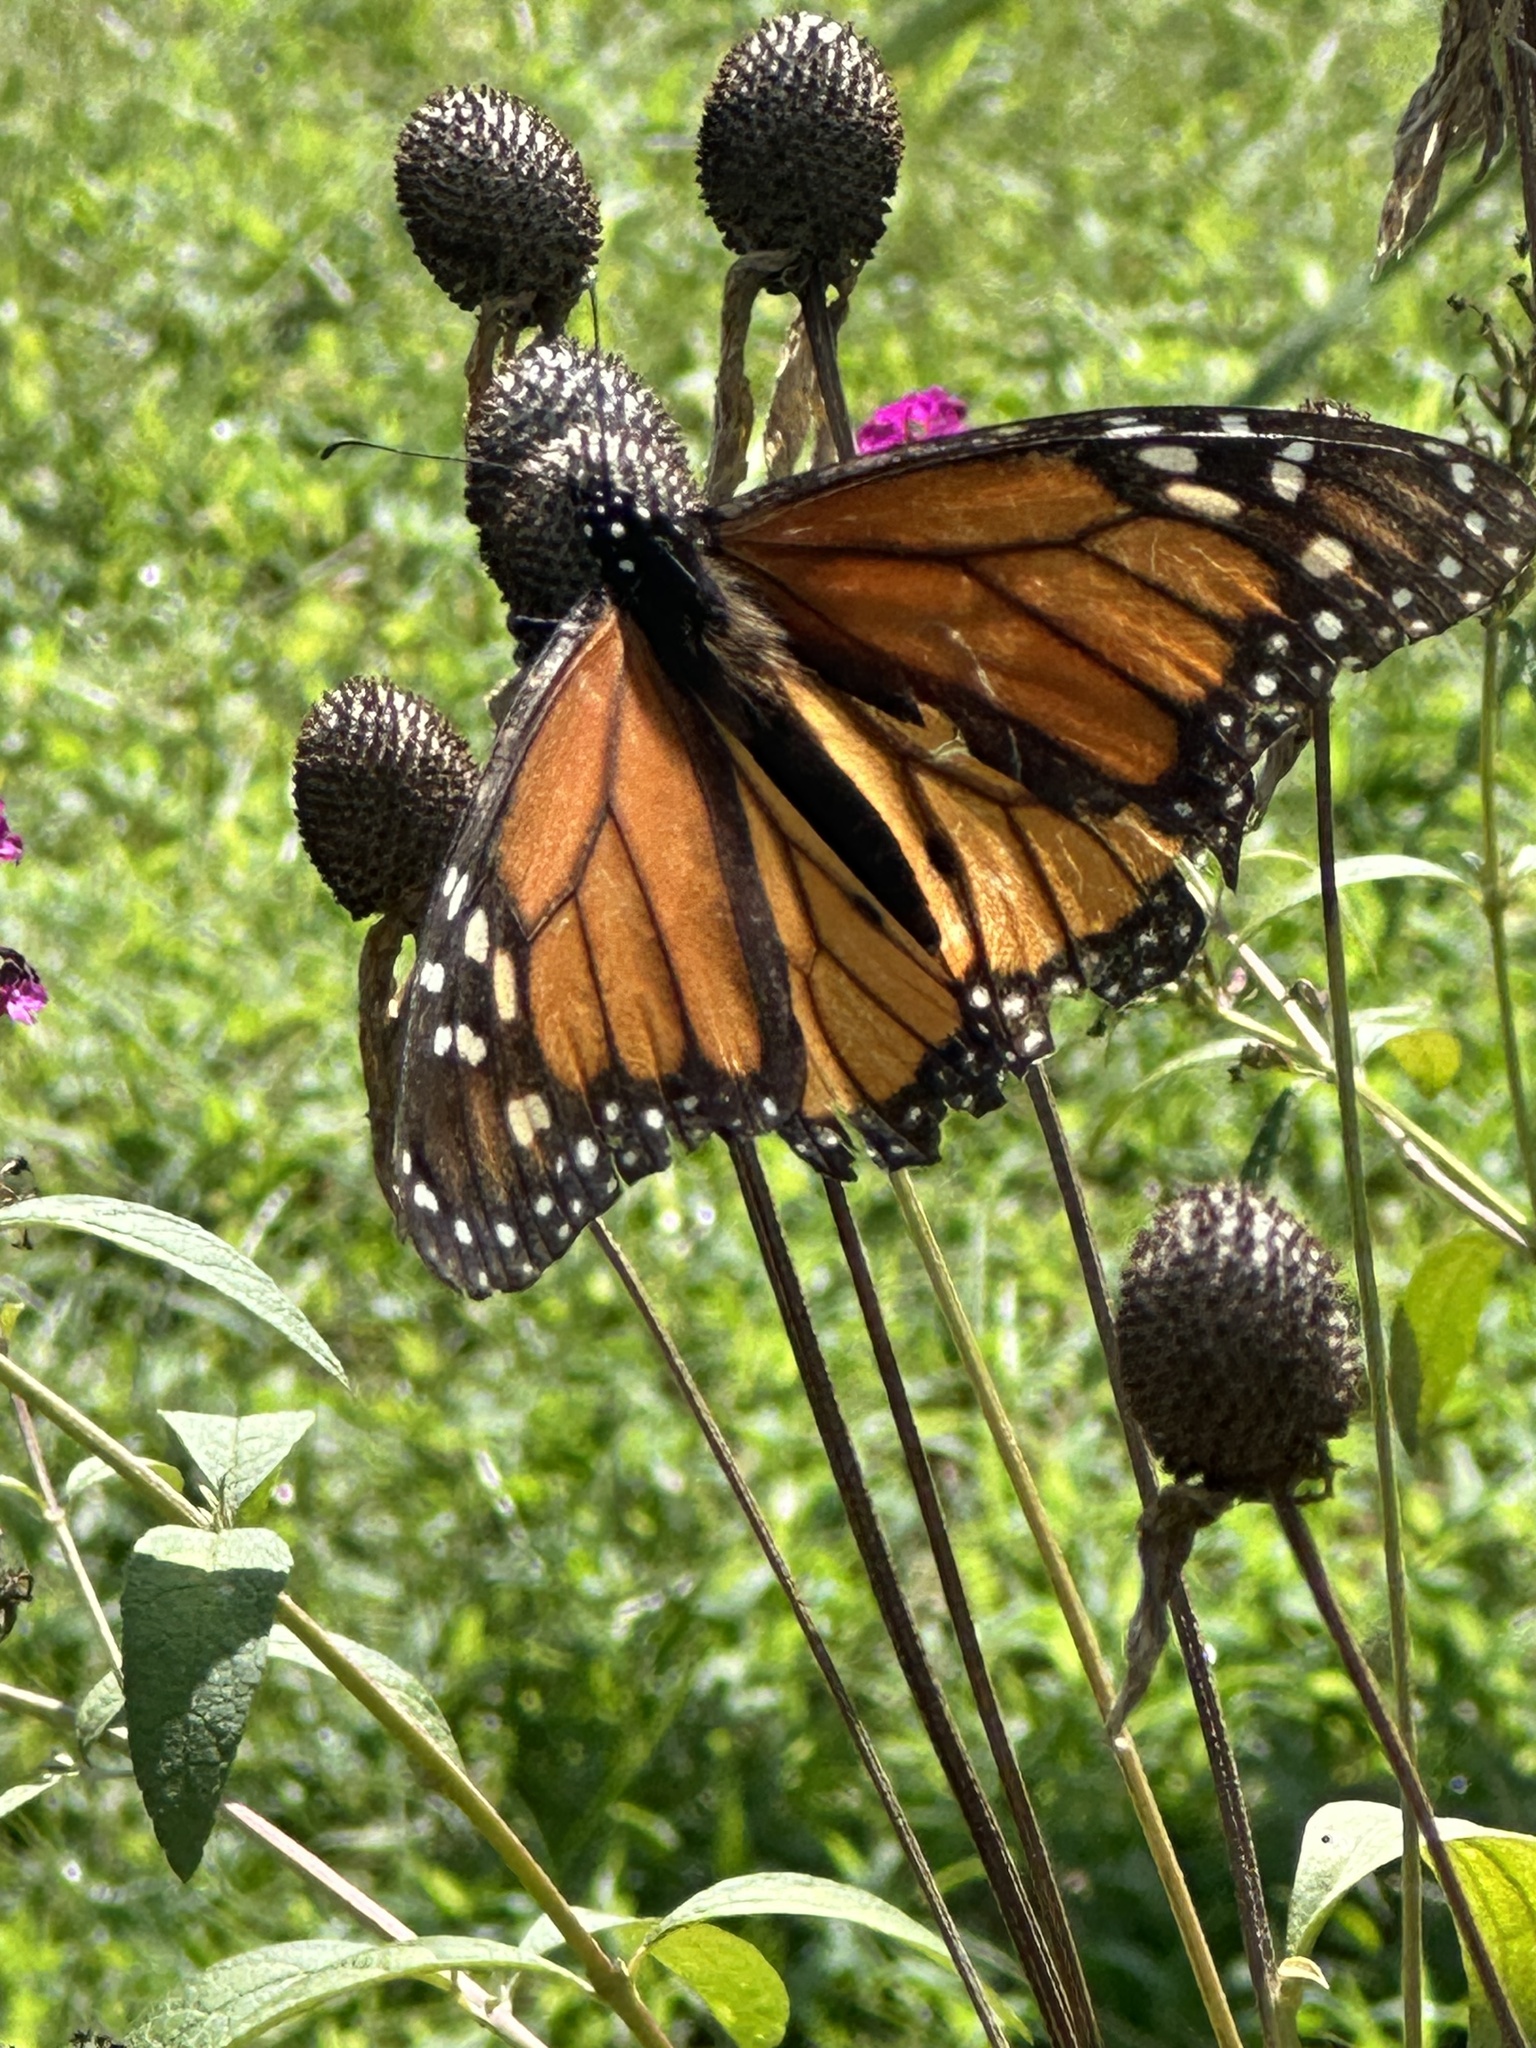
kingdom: Animalia
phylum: Arthropoda
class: Insecta
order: Lepidoptera
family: Nymphalidae
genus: Danaus
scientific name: Danaus plexippus
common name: Monarch
